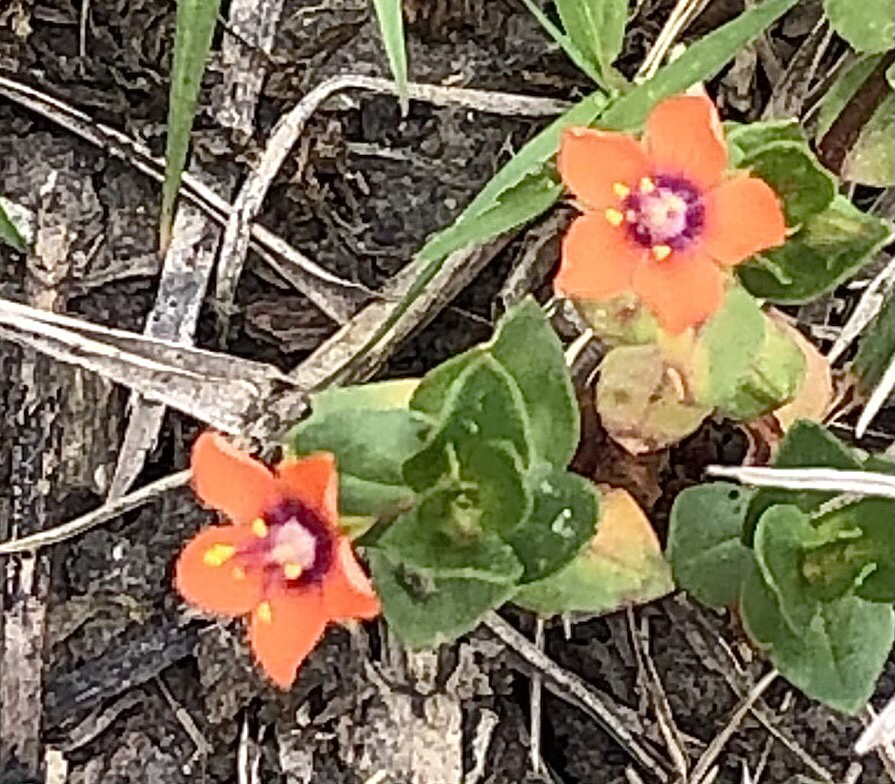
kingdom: Plantae
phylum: Tracheophyta
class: Magnoliopsida
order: Ericales
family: Primulaceae
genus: Lysimachia
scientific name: Lysimachia arvensis
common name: Scarlet pimpernel
